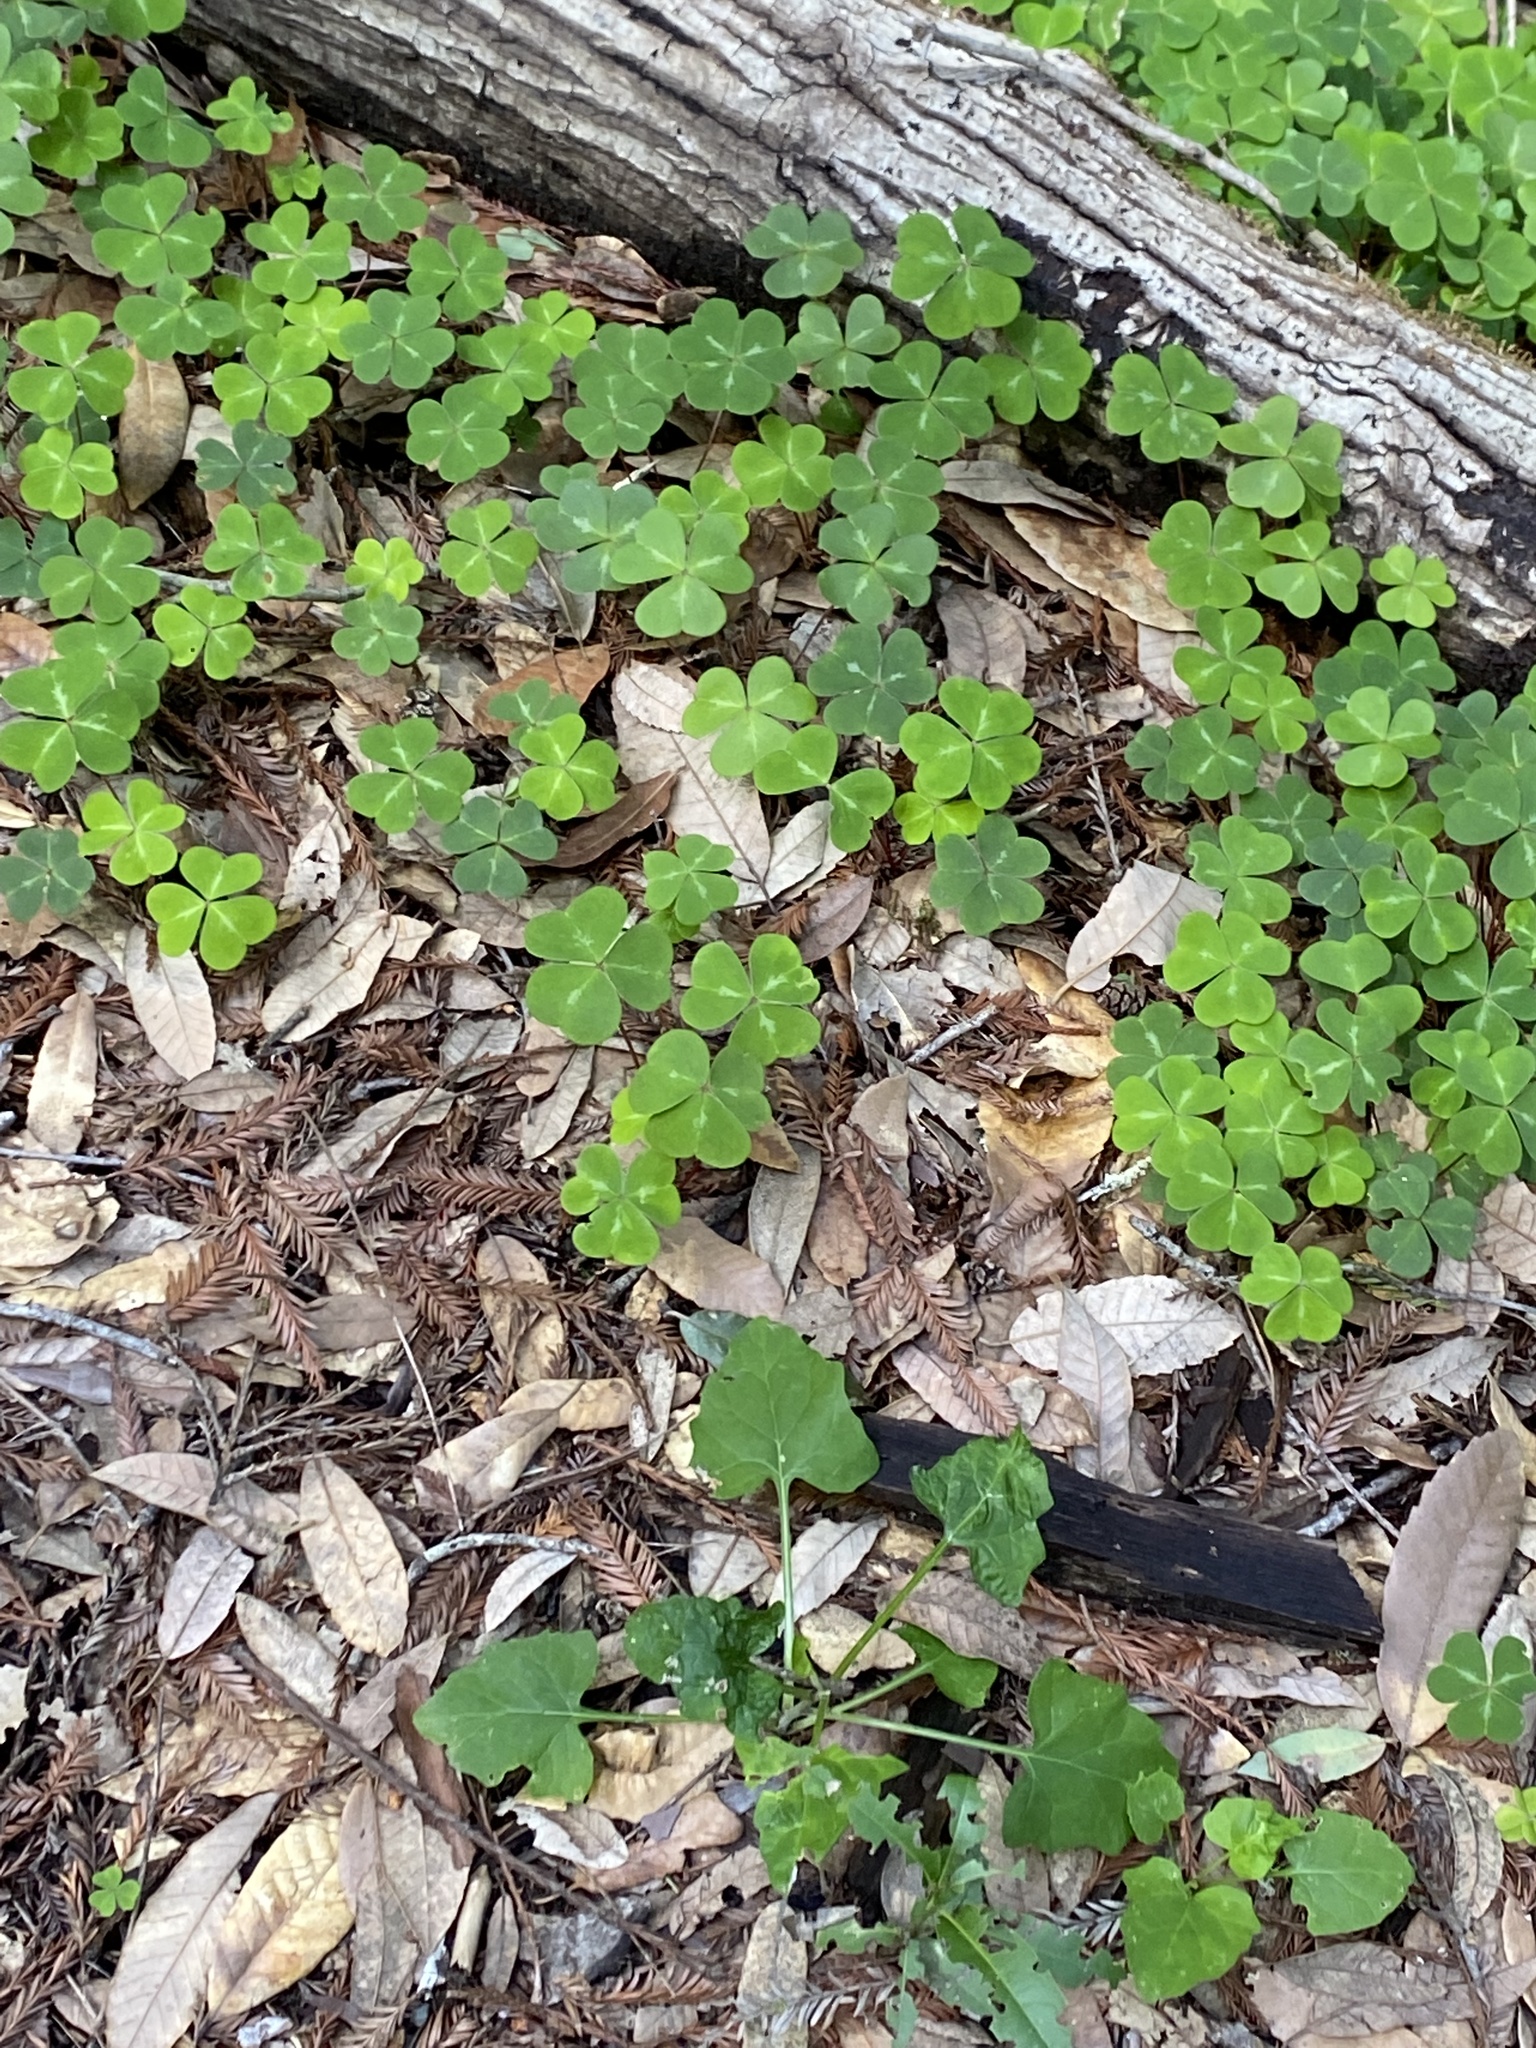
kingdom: Plantae
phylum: Tracheophyta
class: Magnoliopsida
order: Oxalidales
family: Oxalidaceae
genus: Oxalis
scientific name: Oxalis oregana
